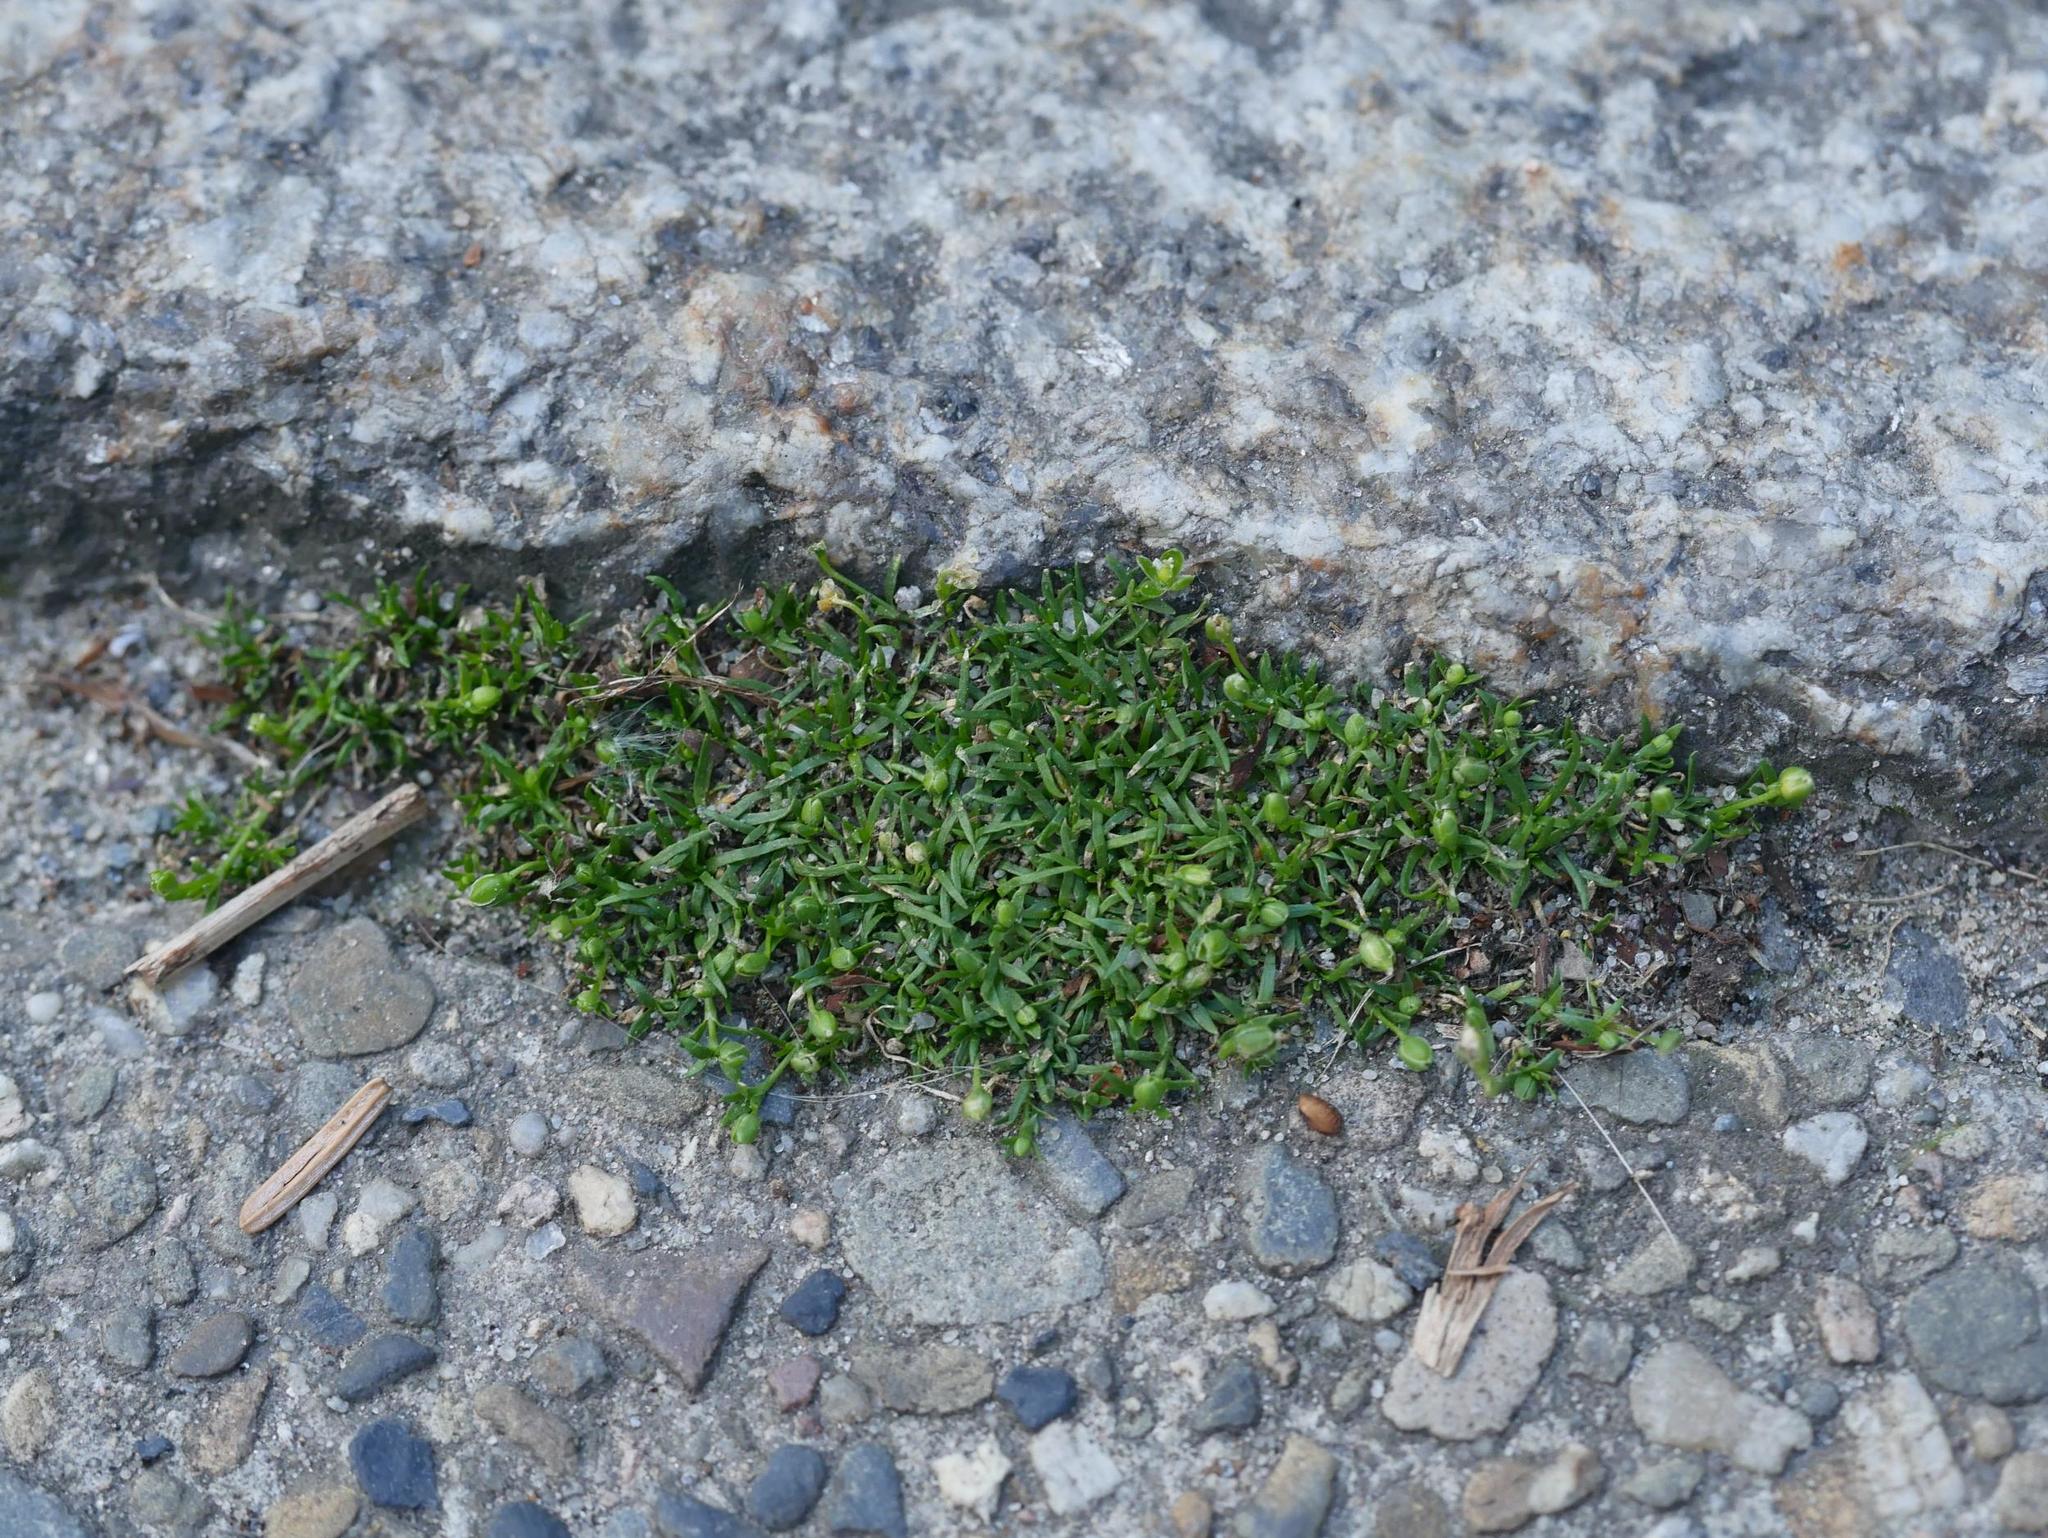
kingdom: Plantae
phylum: Tracheophyta
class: Magnoliopsida
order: Caryophyllales
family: Caryophyllaceae
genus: Sagina
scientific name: Sagina procumbens
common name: Procumbent pearlwort
